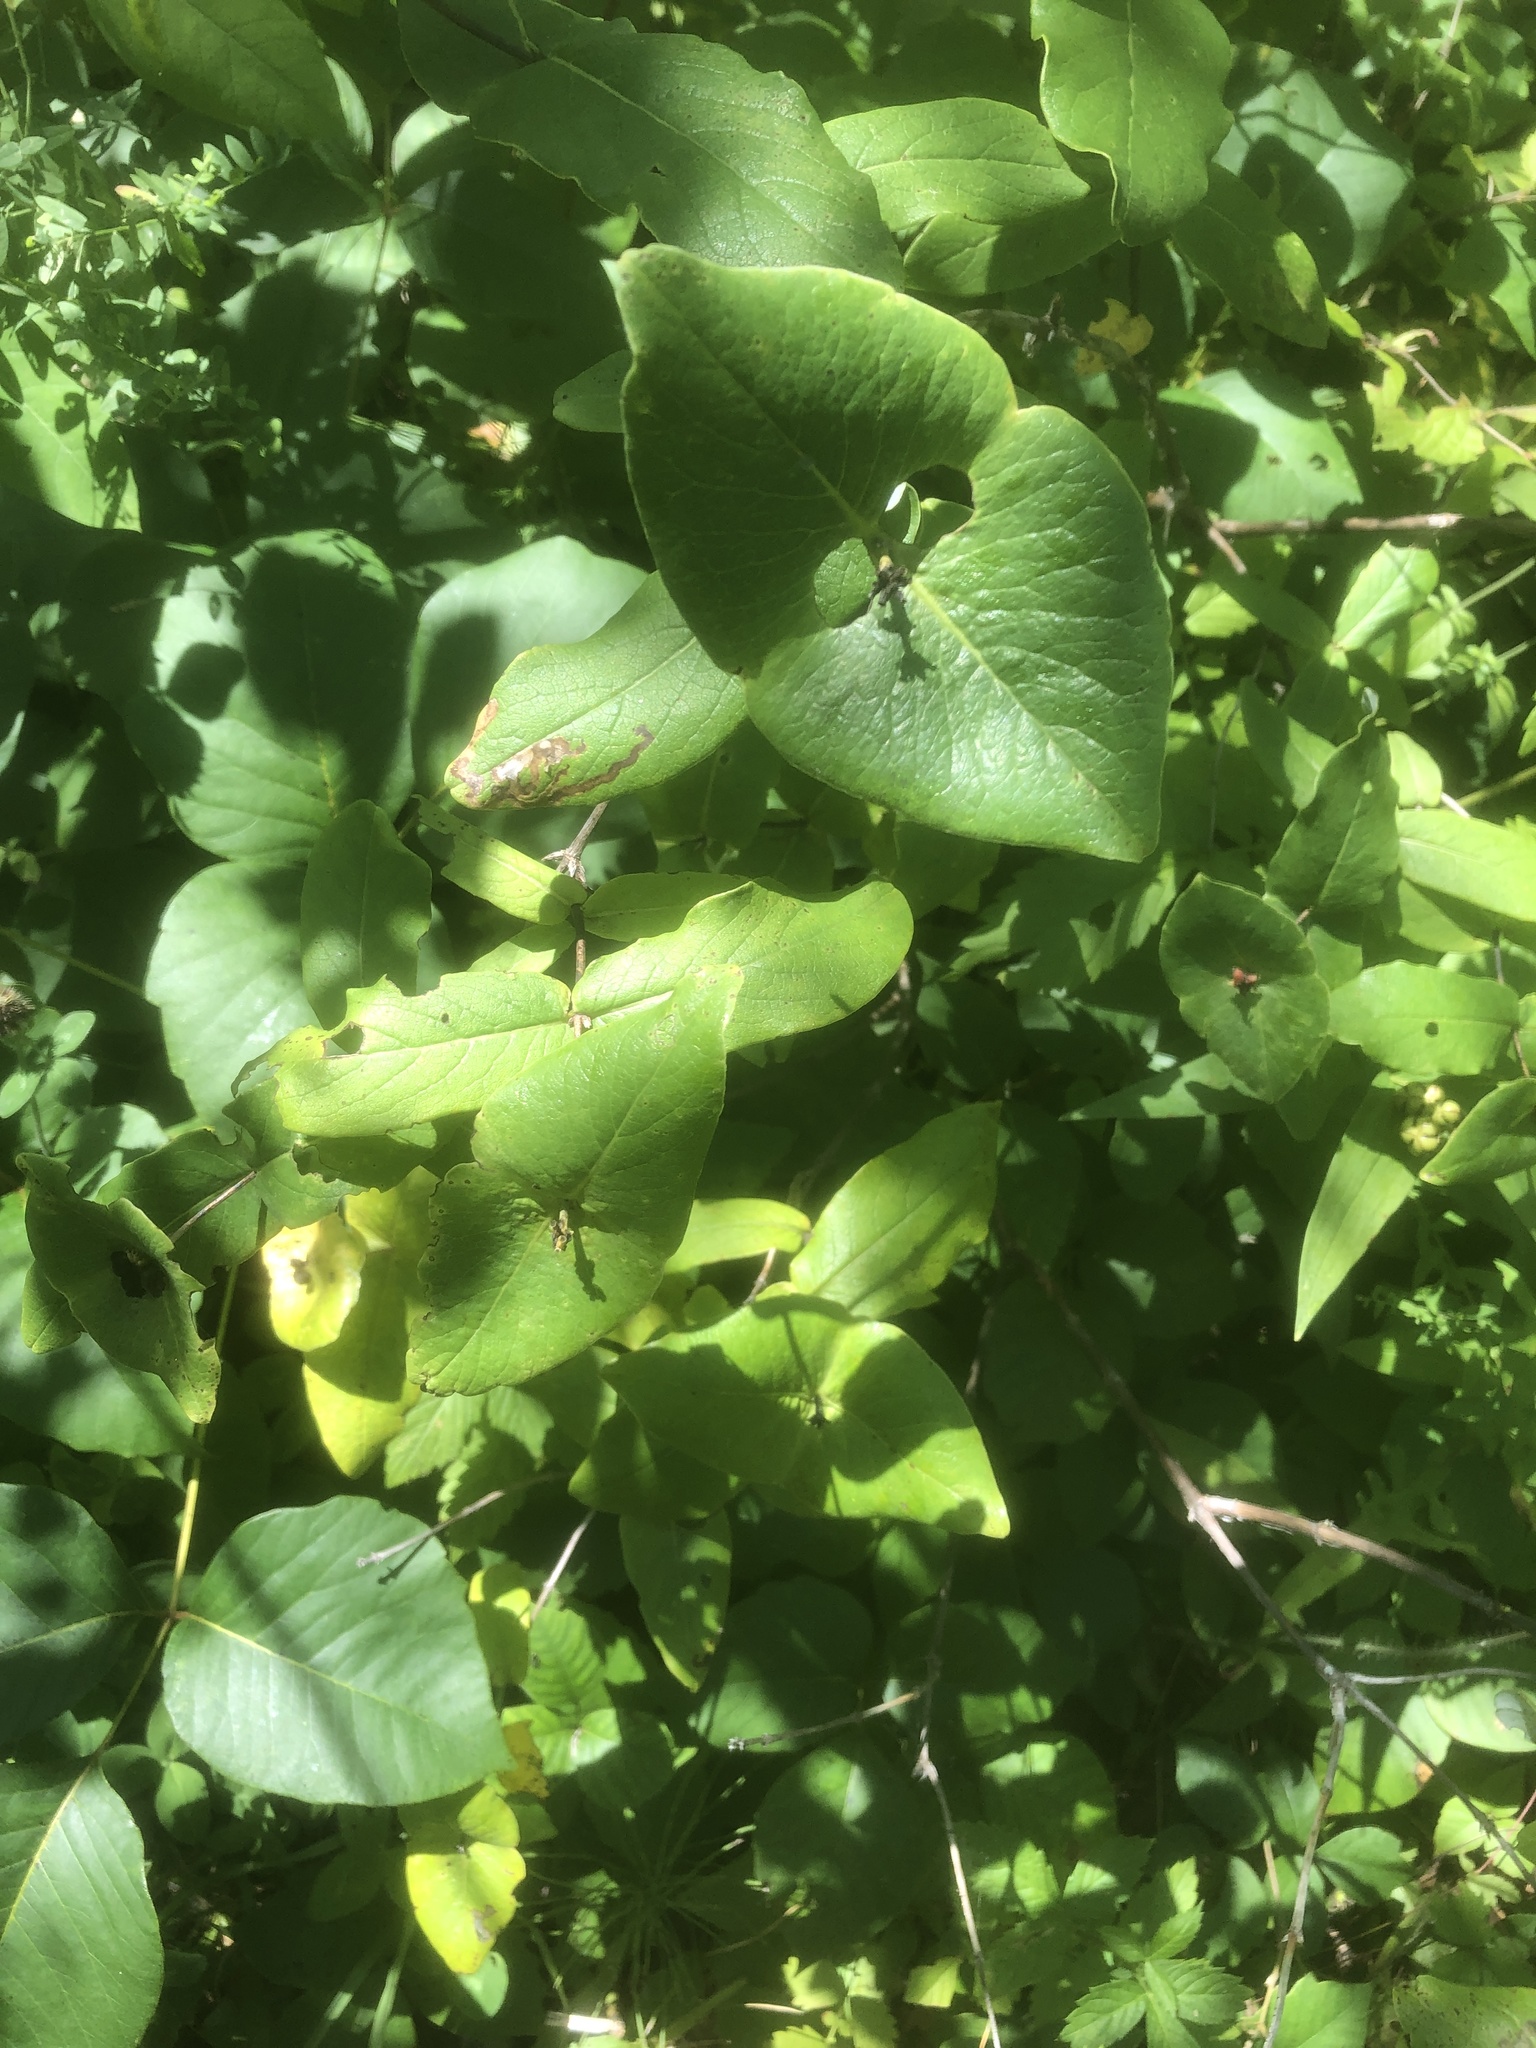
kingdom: Plantae
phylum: Tracheophyta
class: Magnoliopsida
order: Dipsacales
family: Caprifoliaceae
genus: Lonicera
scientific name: Lonicera dioica
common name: Limber honeysuckle
